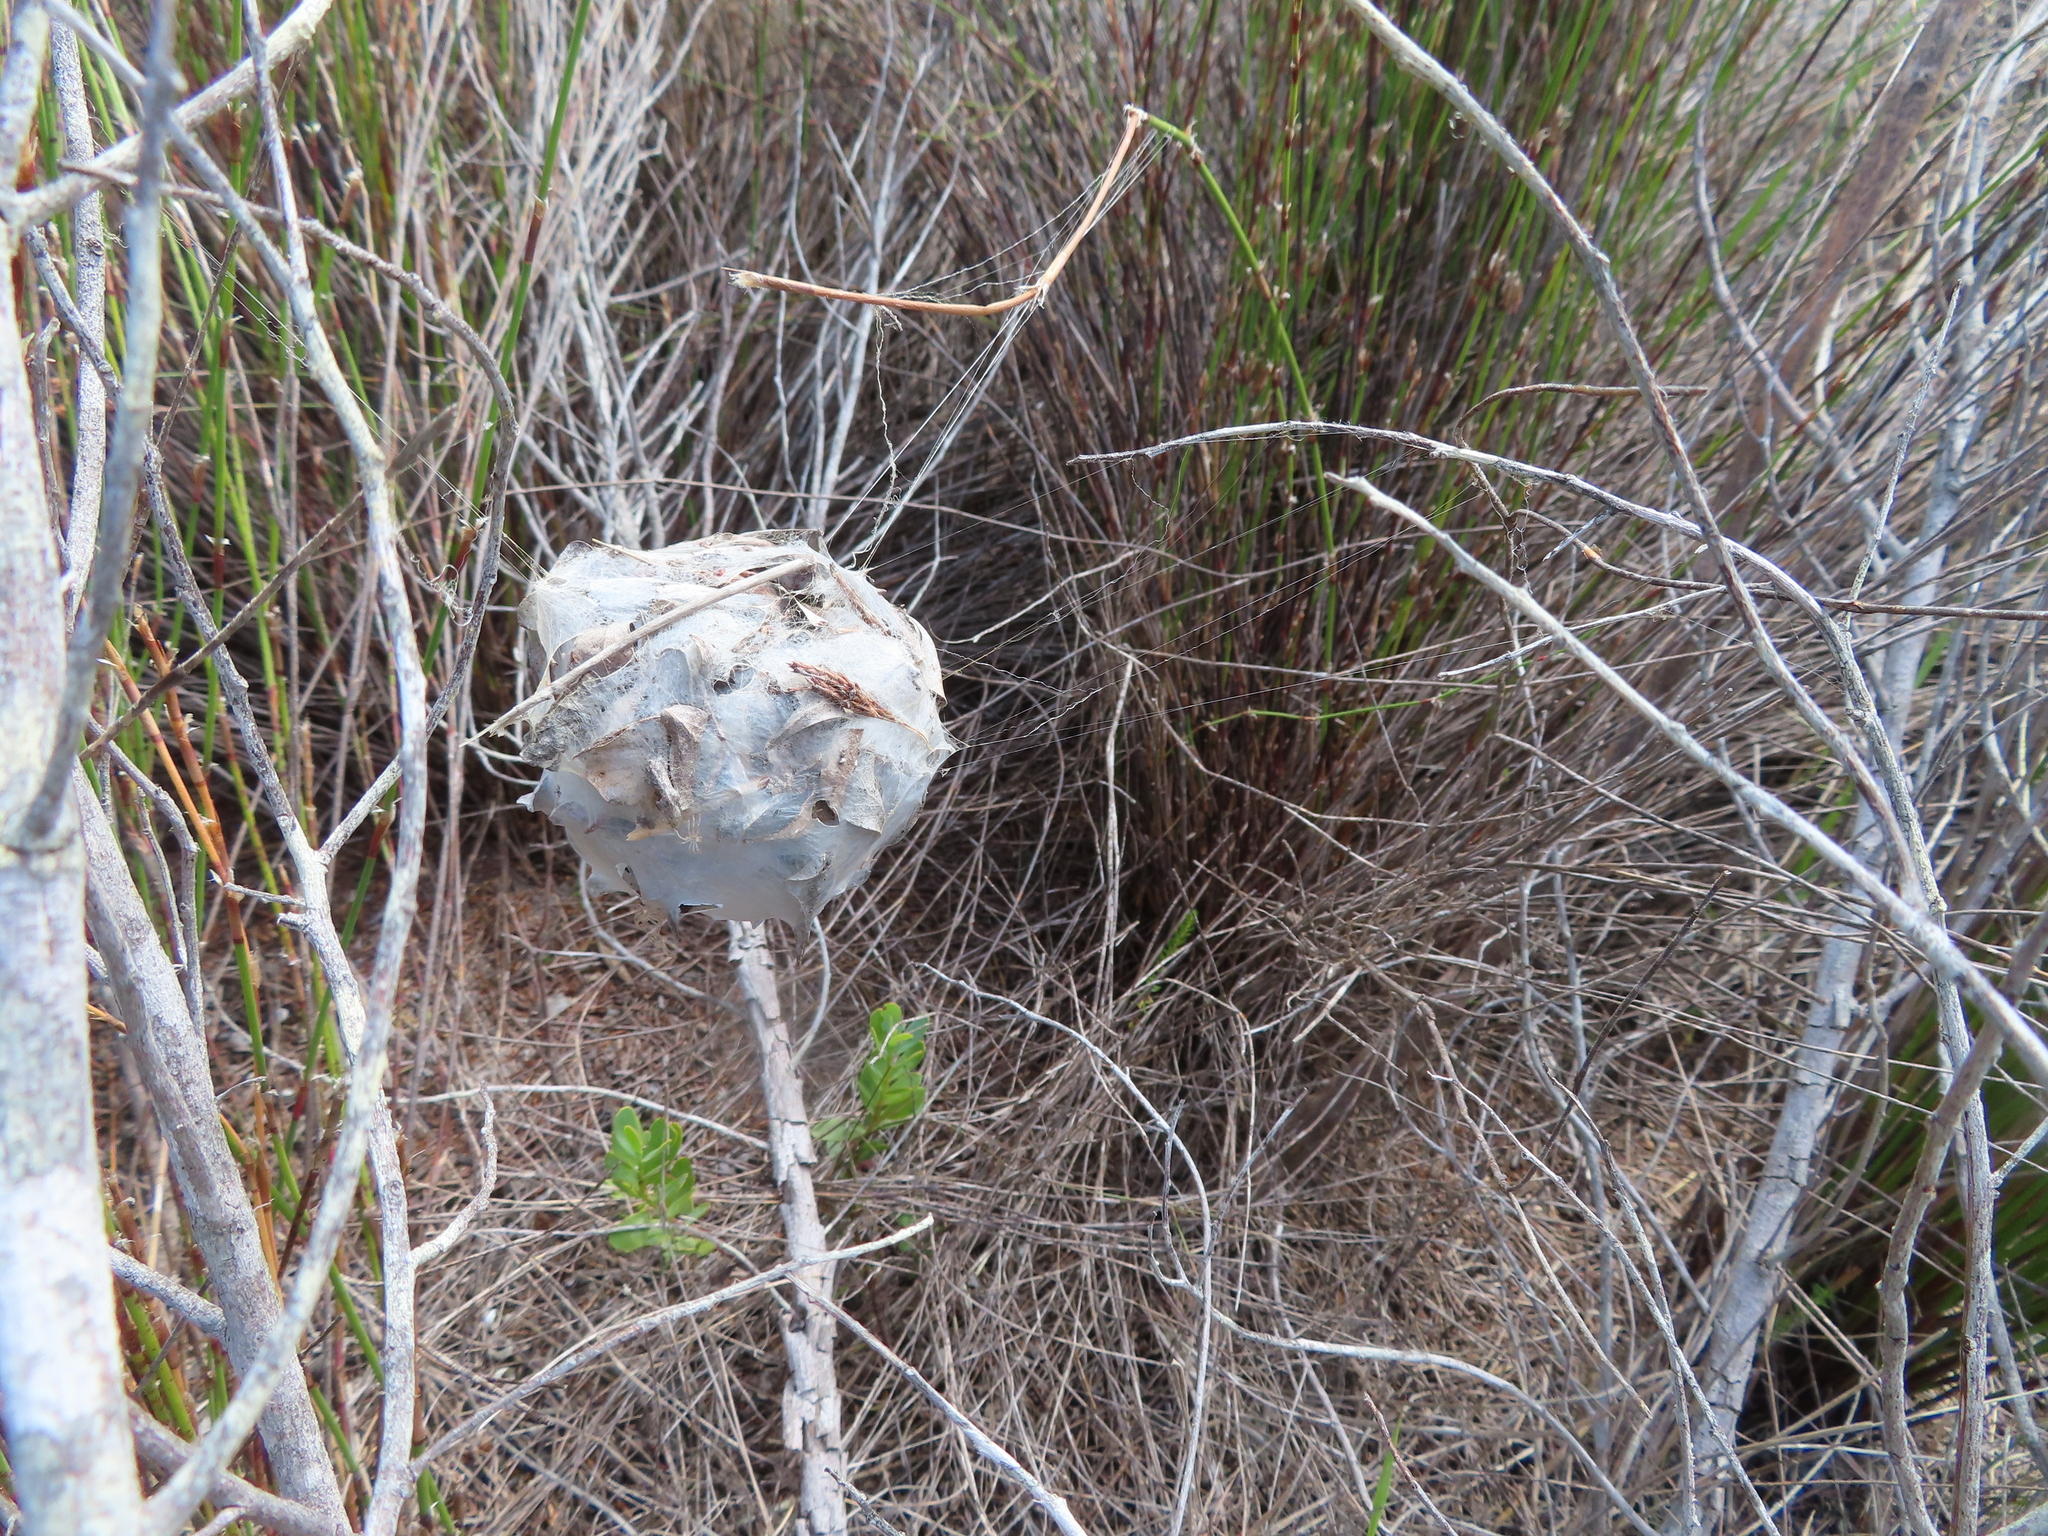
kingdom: Animalia
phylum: Arthropoda
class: Arachnida
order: Araneae
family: Sparassidae
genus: Palystes
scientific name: Palystes superciliosus
